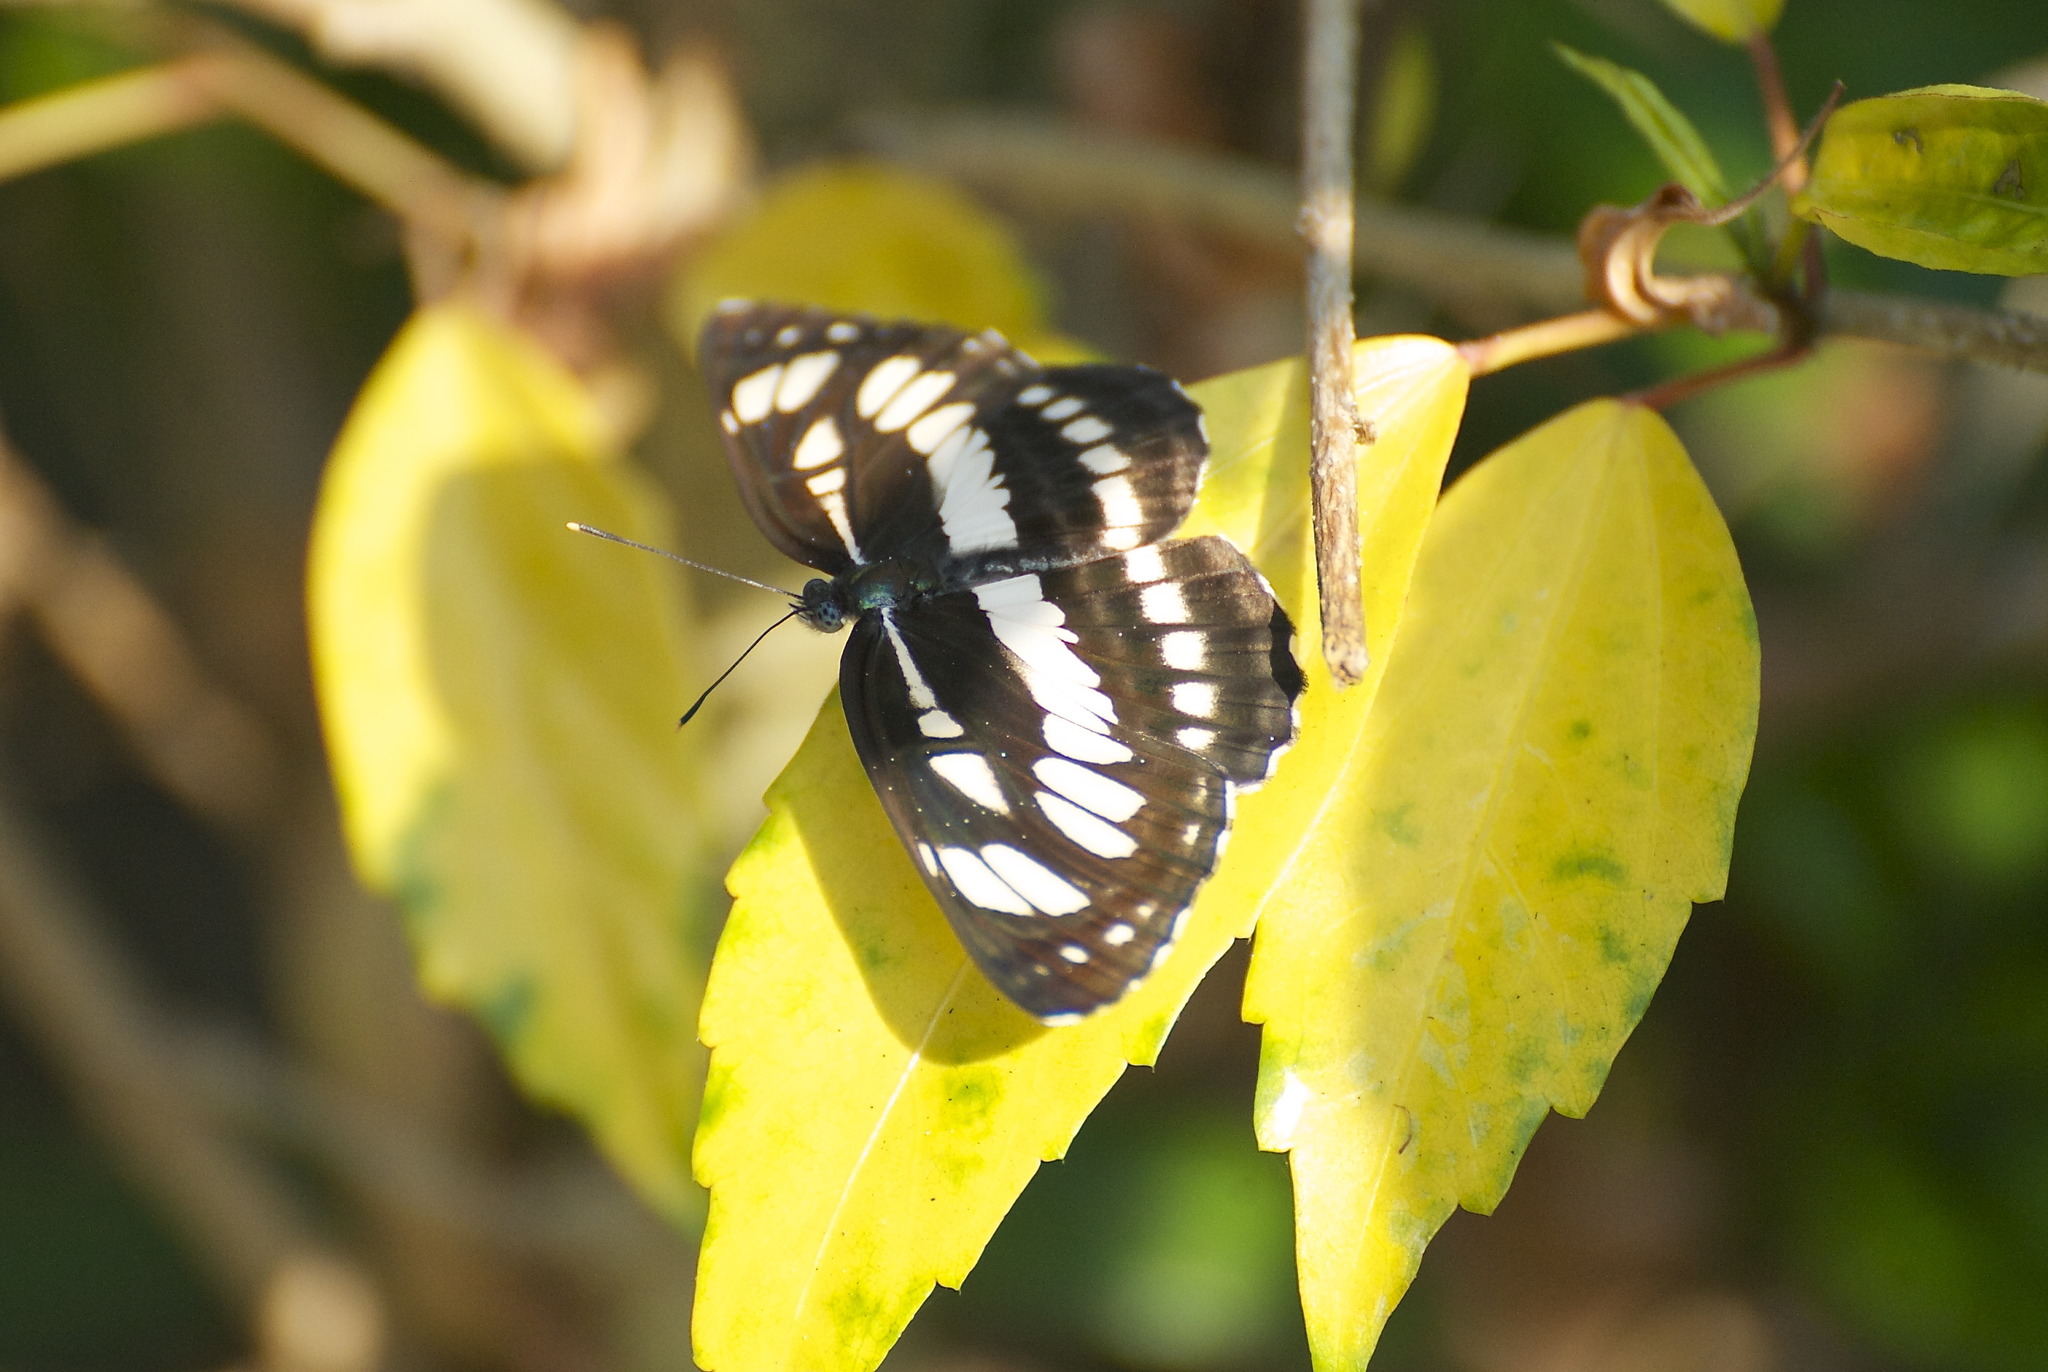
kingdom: Animalia
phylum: Arthropoda
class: Insecta
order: Lepidoptera
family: Nymphalidae
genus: Neptis
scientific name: Neptis hylas
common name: Common sailer
